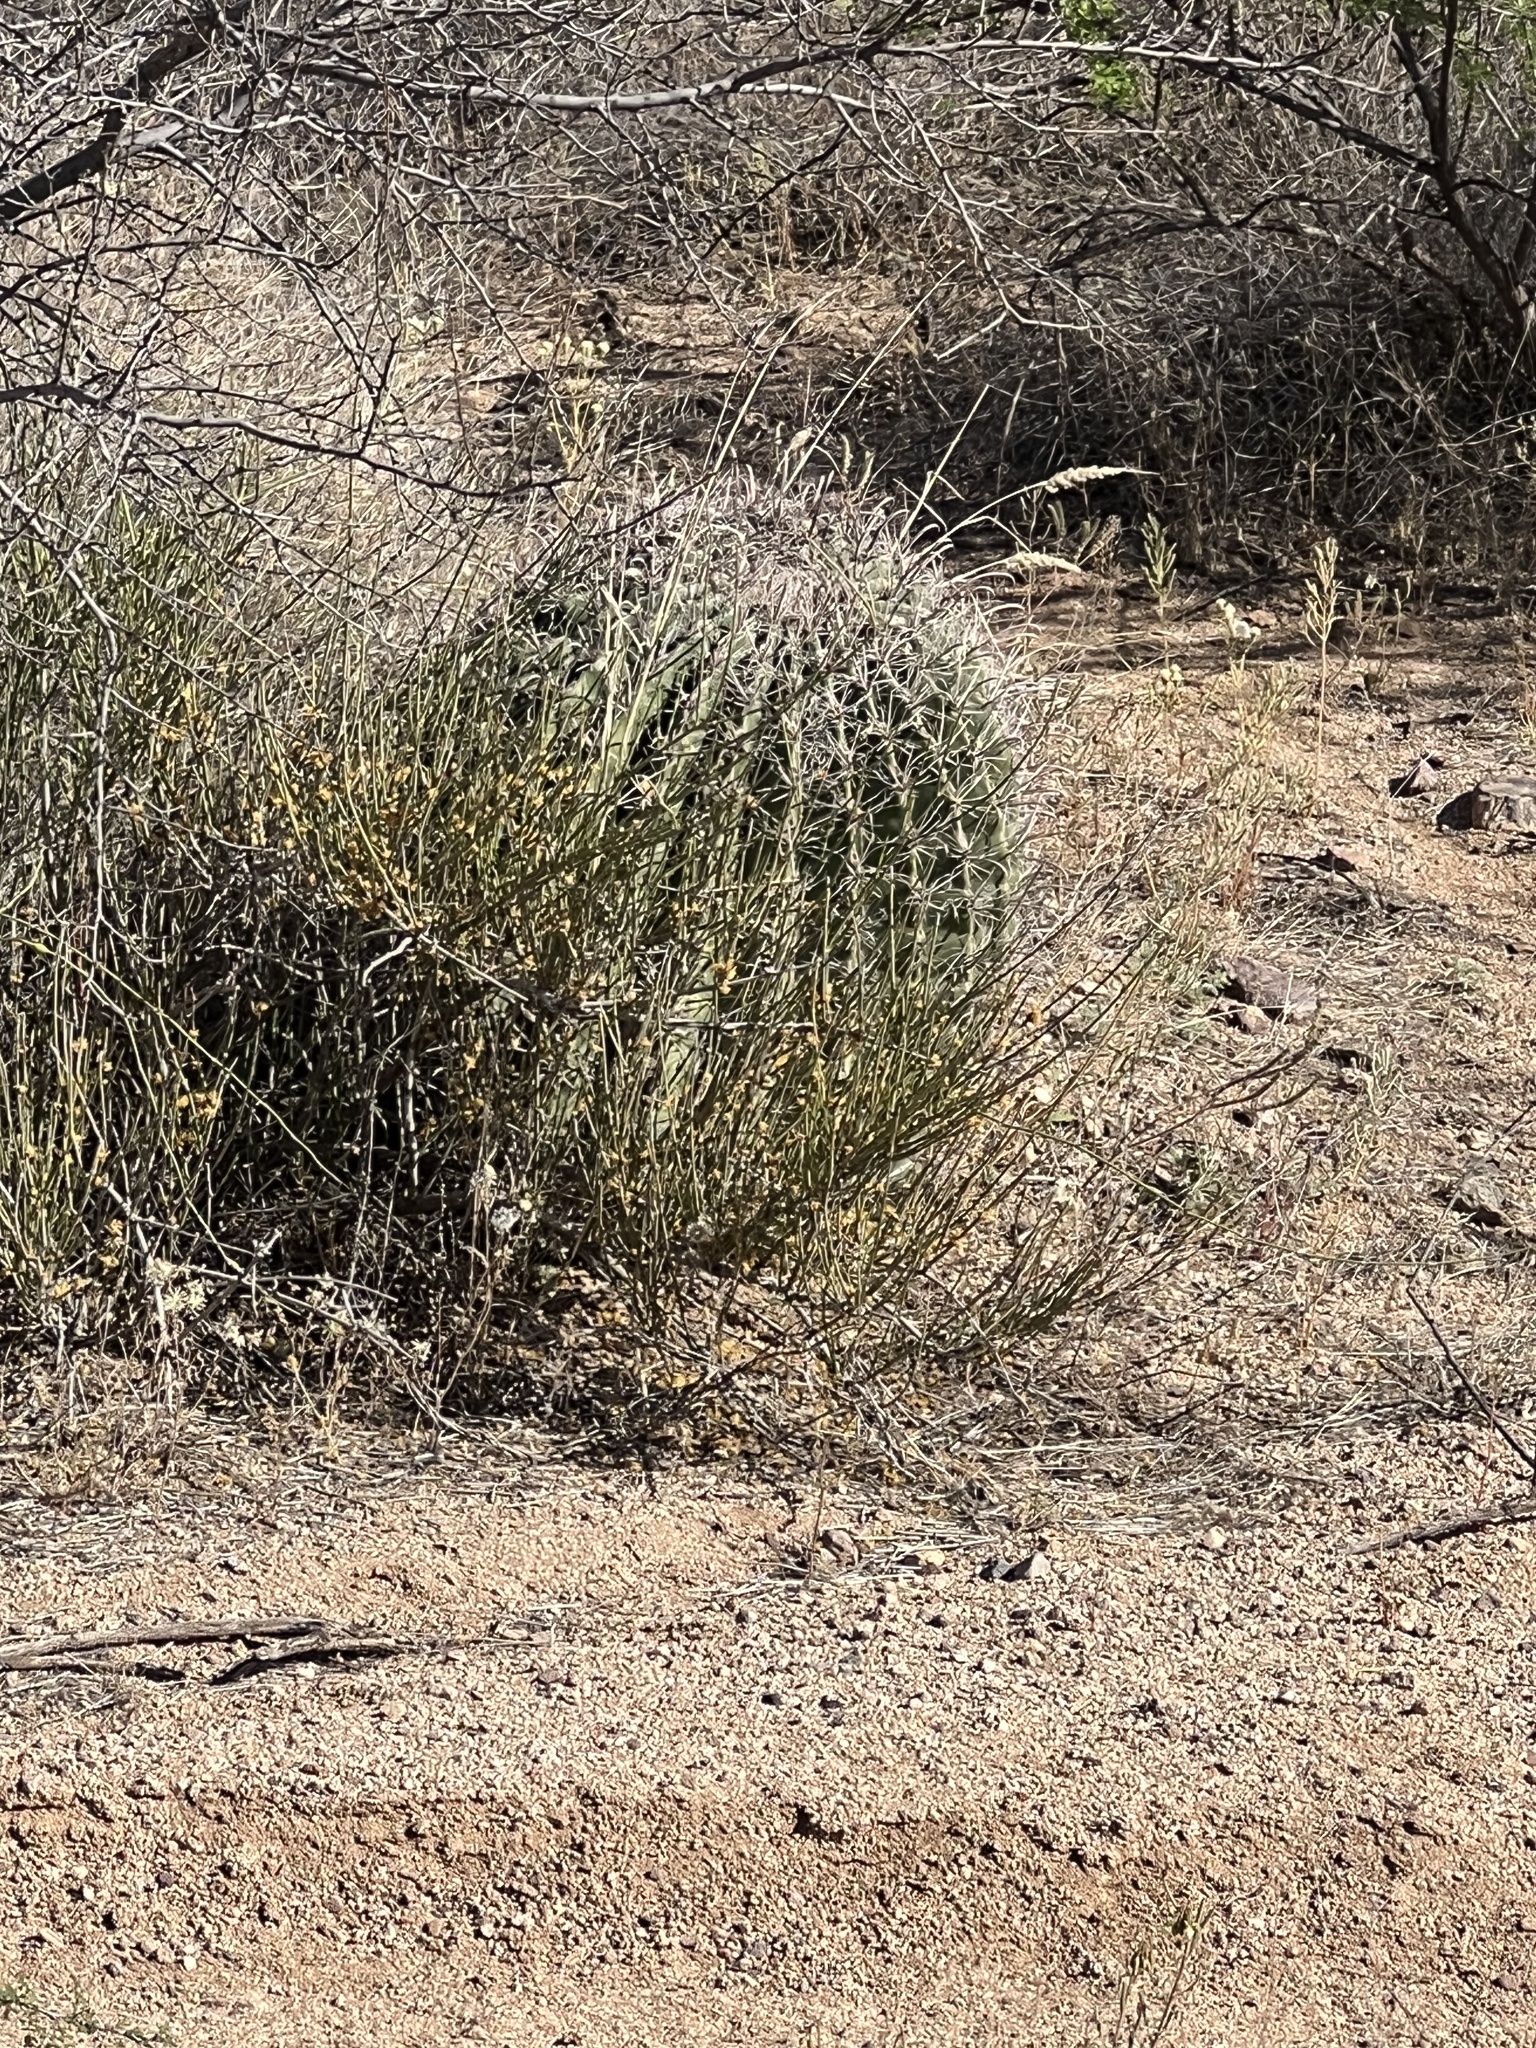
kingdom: Plantae
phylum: Tracheophyta
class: Magnoliopsida
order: Caryophyllales
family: Cactaceae
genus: Ferocactus
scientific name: Ferocactus wislizeni
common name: Candy barrel cactus
